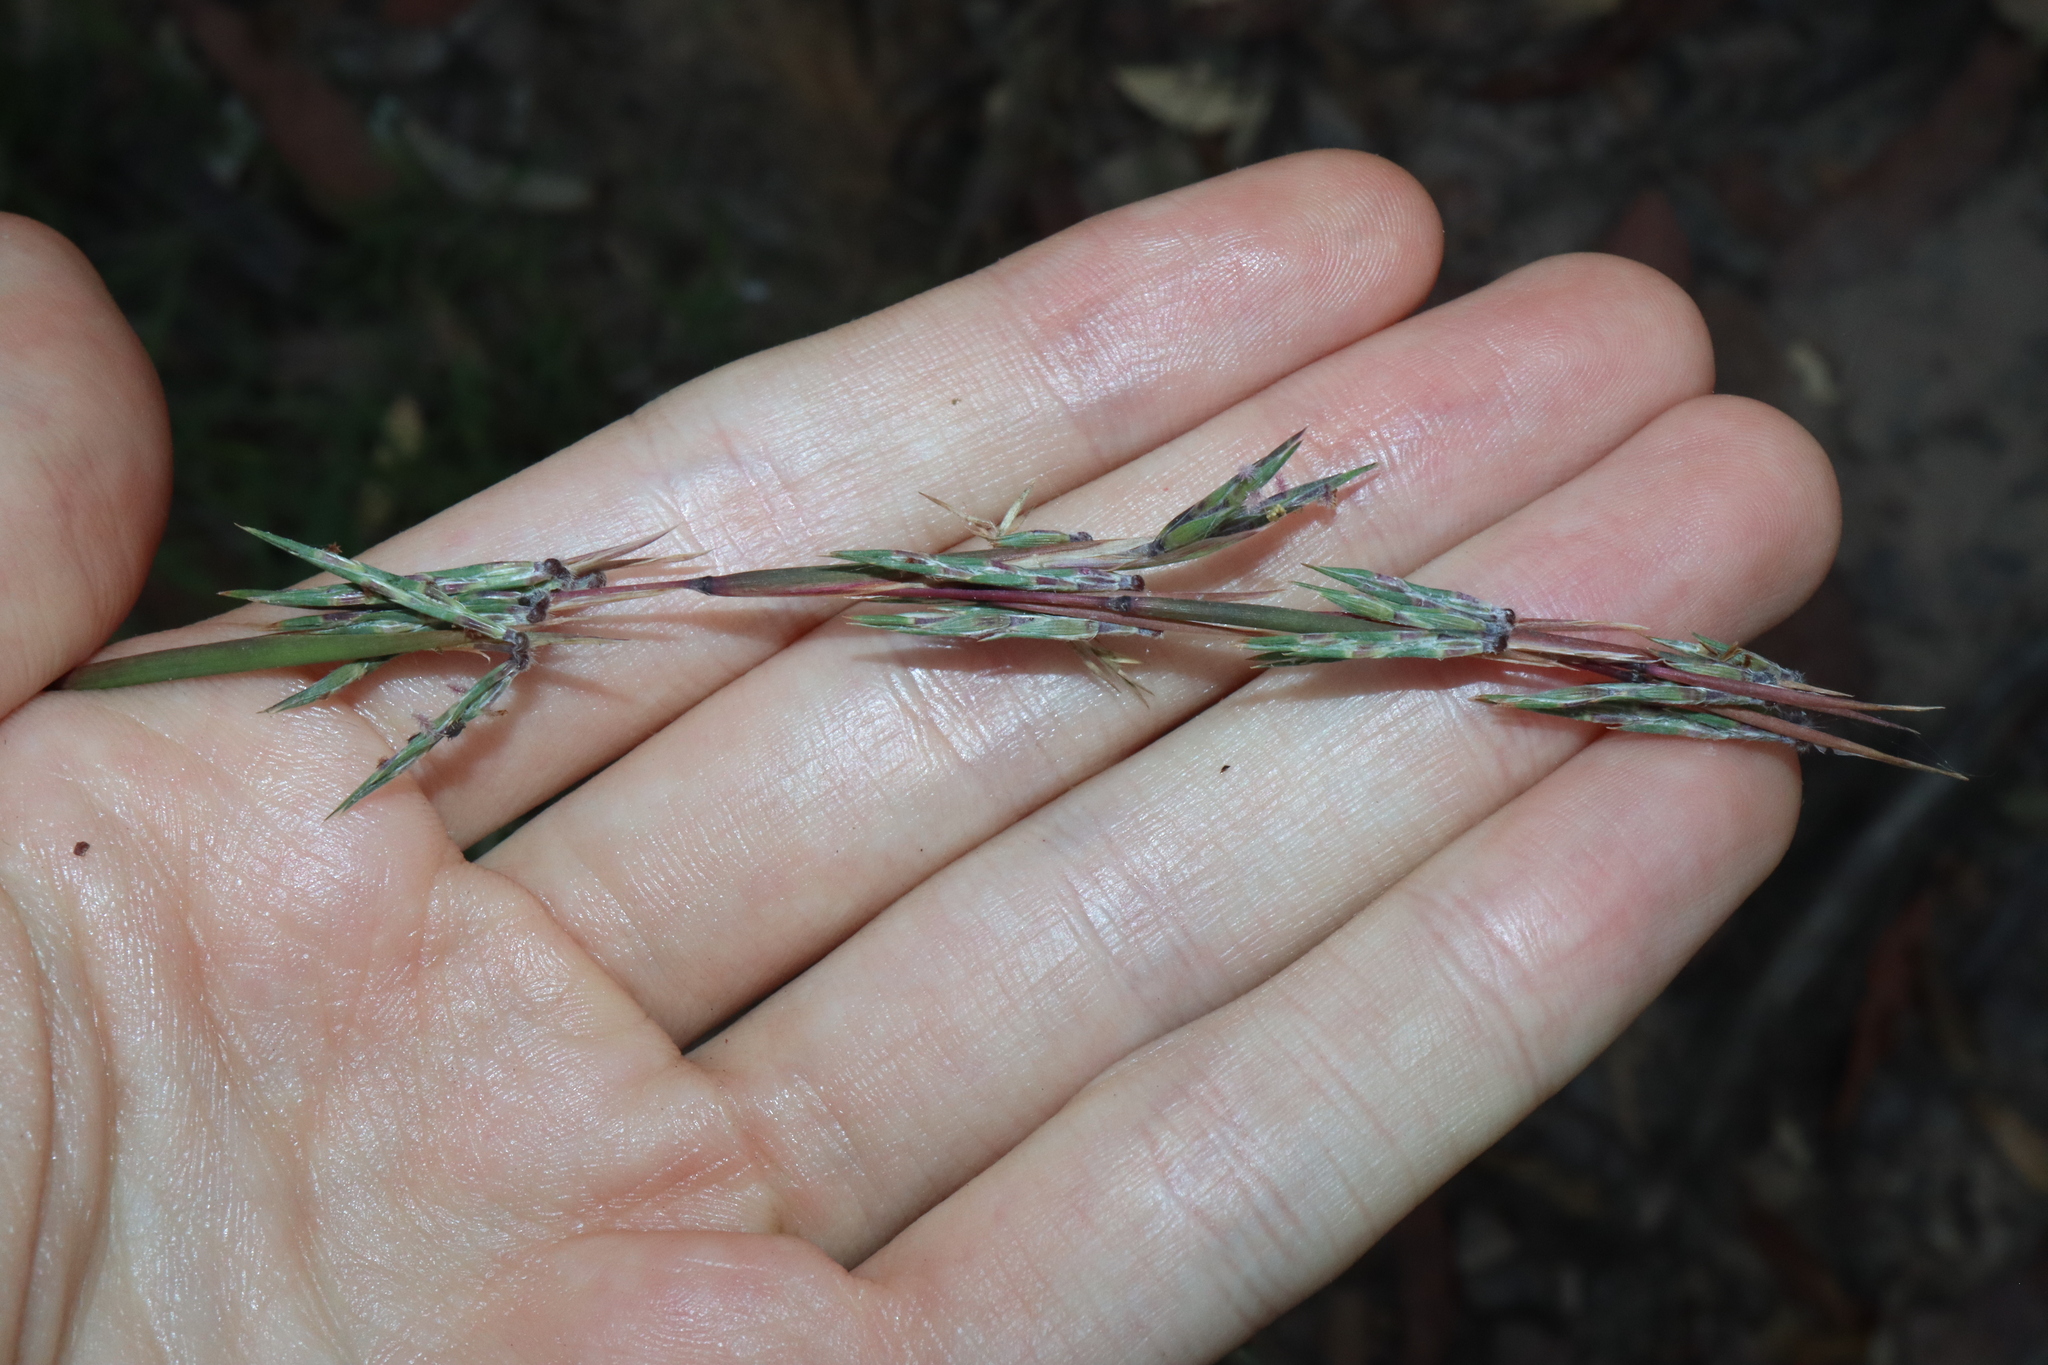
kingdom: Plantae
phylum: Tracheophyta
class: Liliopsida
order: Poales
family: Poaceae
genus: Cymbopogon
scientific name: Cymbopogon refractus
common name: Barbwire grass
